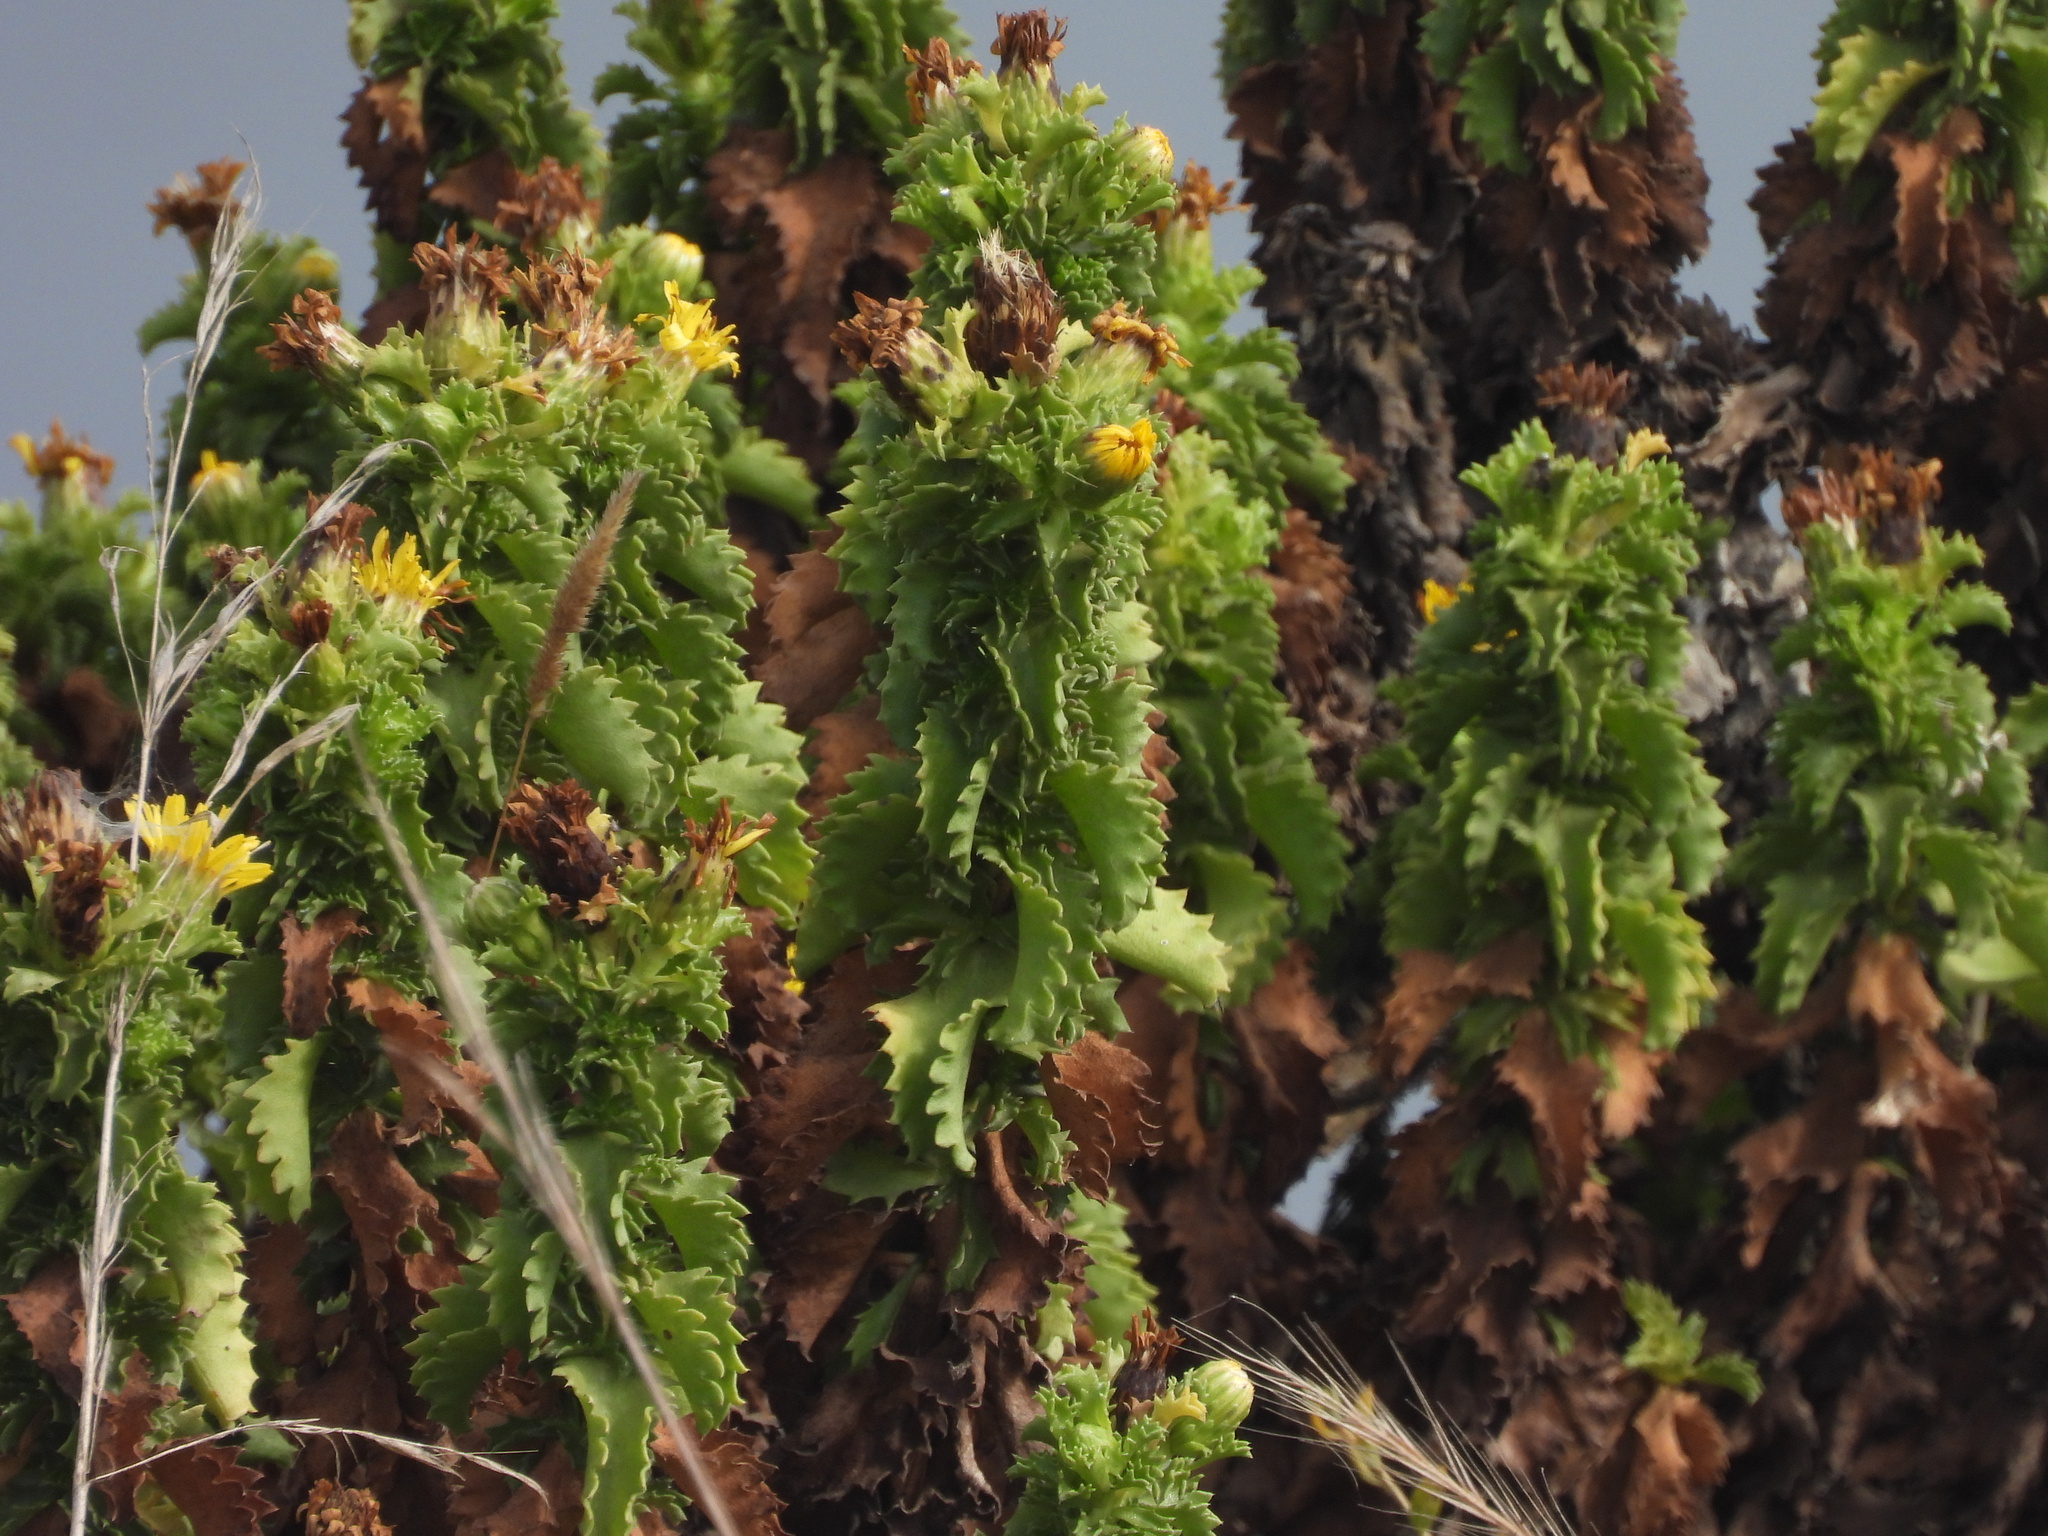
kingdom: Plantae
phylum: Tracheophyta
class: Magnoliopsida
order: Asterales
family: Asteraceae
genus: Haplopappus
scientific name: Haplopappus foliosus
